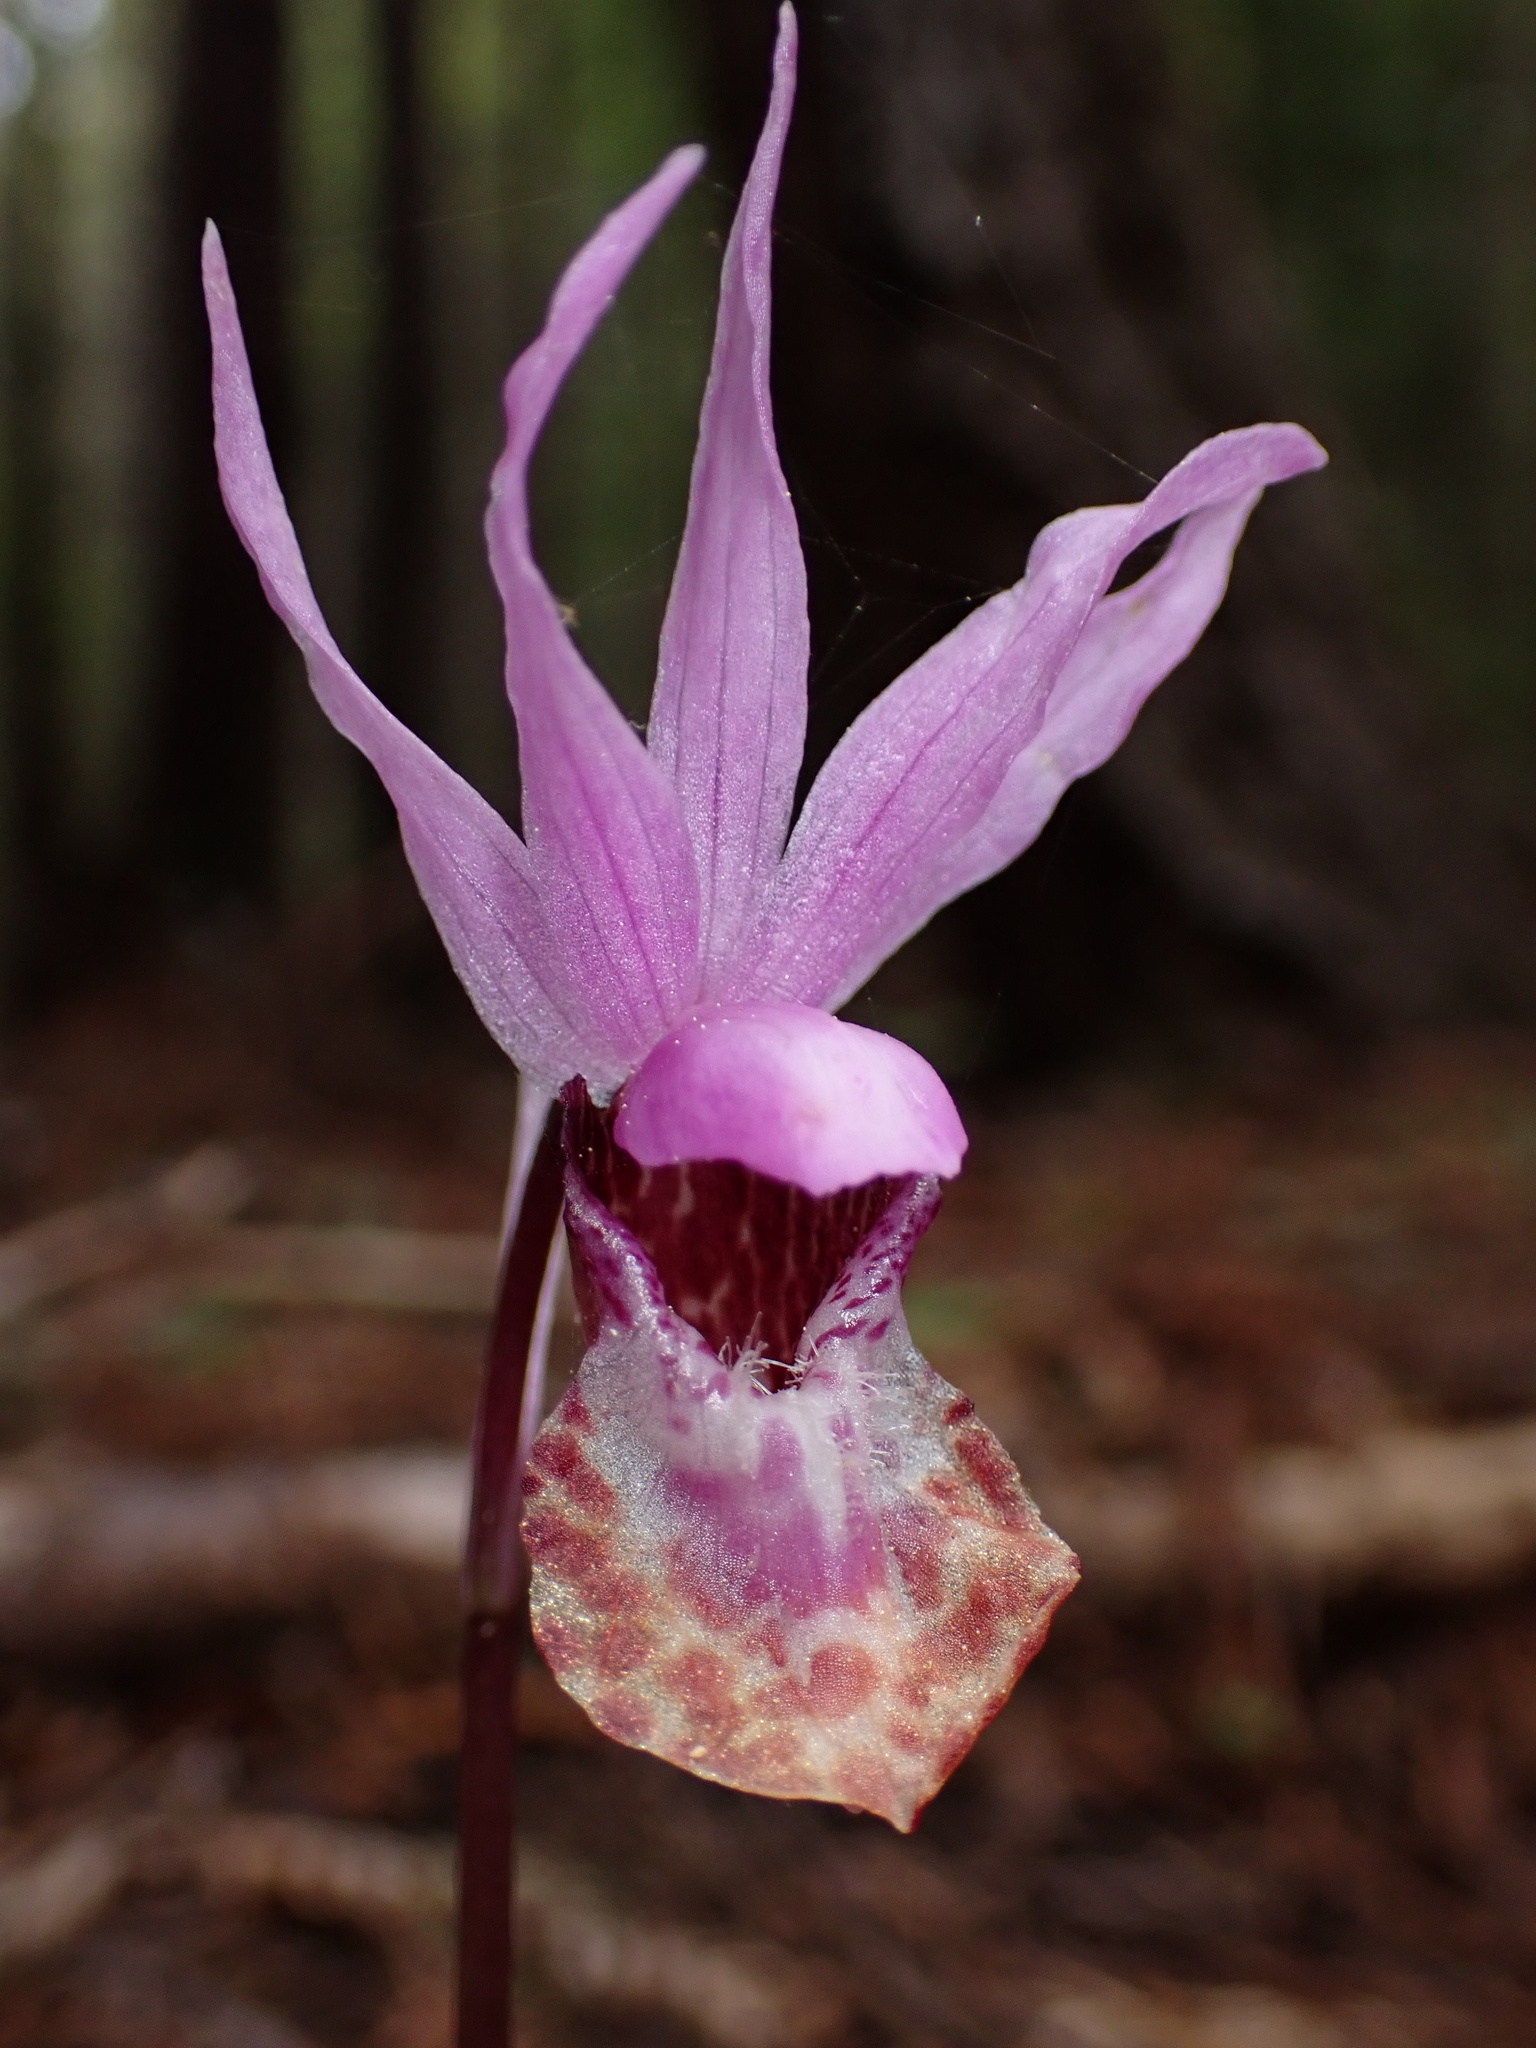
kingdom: Plantae
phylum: Tracheophyta
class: Liliopsida
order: Asparagales
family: Orchidaceae
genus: Calypso
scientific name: Calypso bulbosa
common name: Calypso
